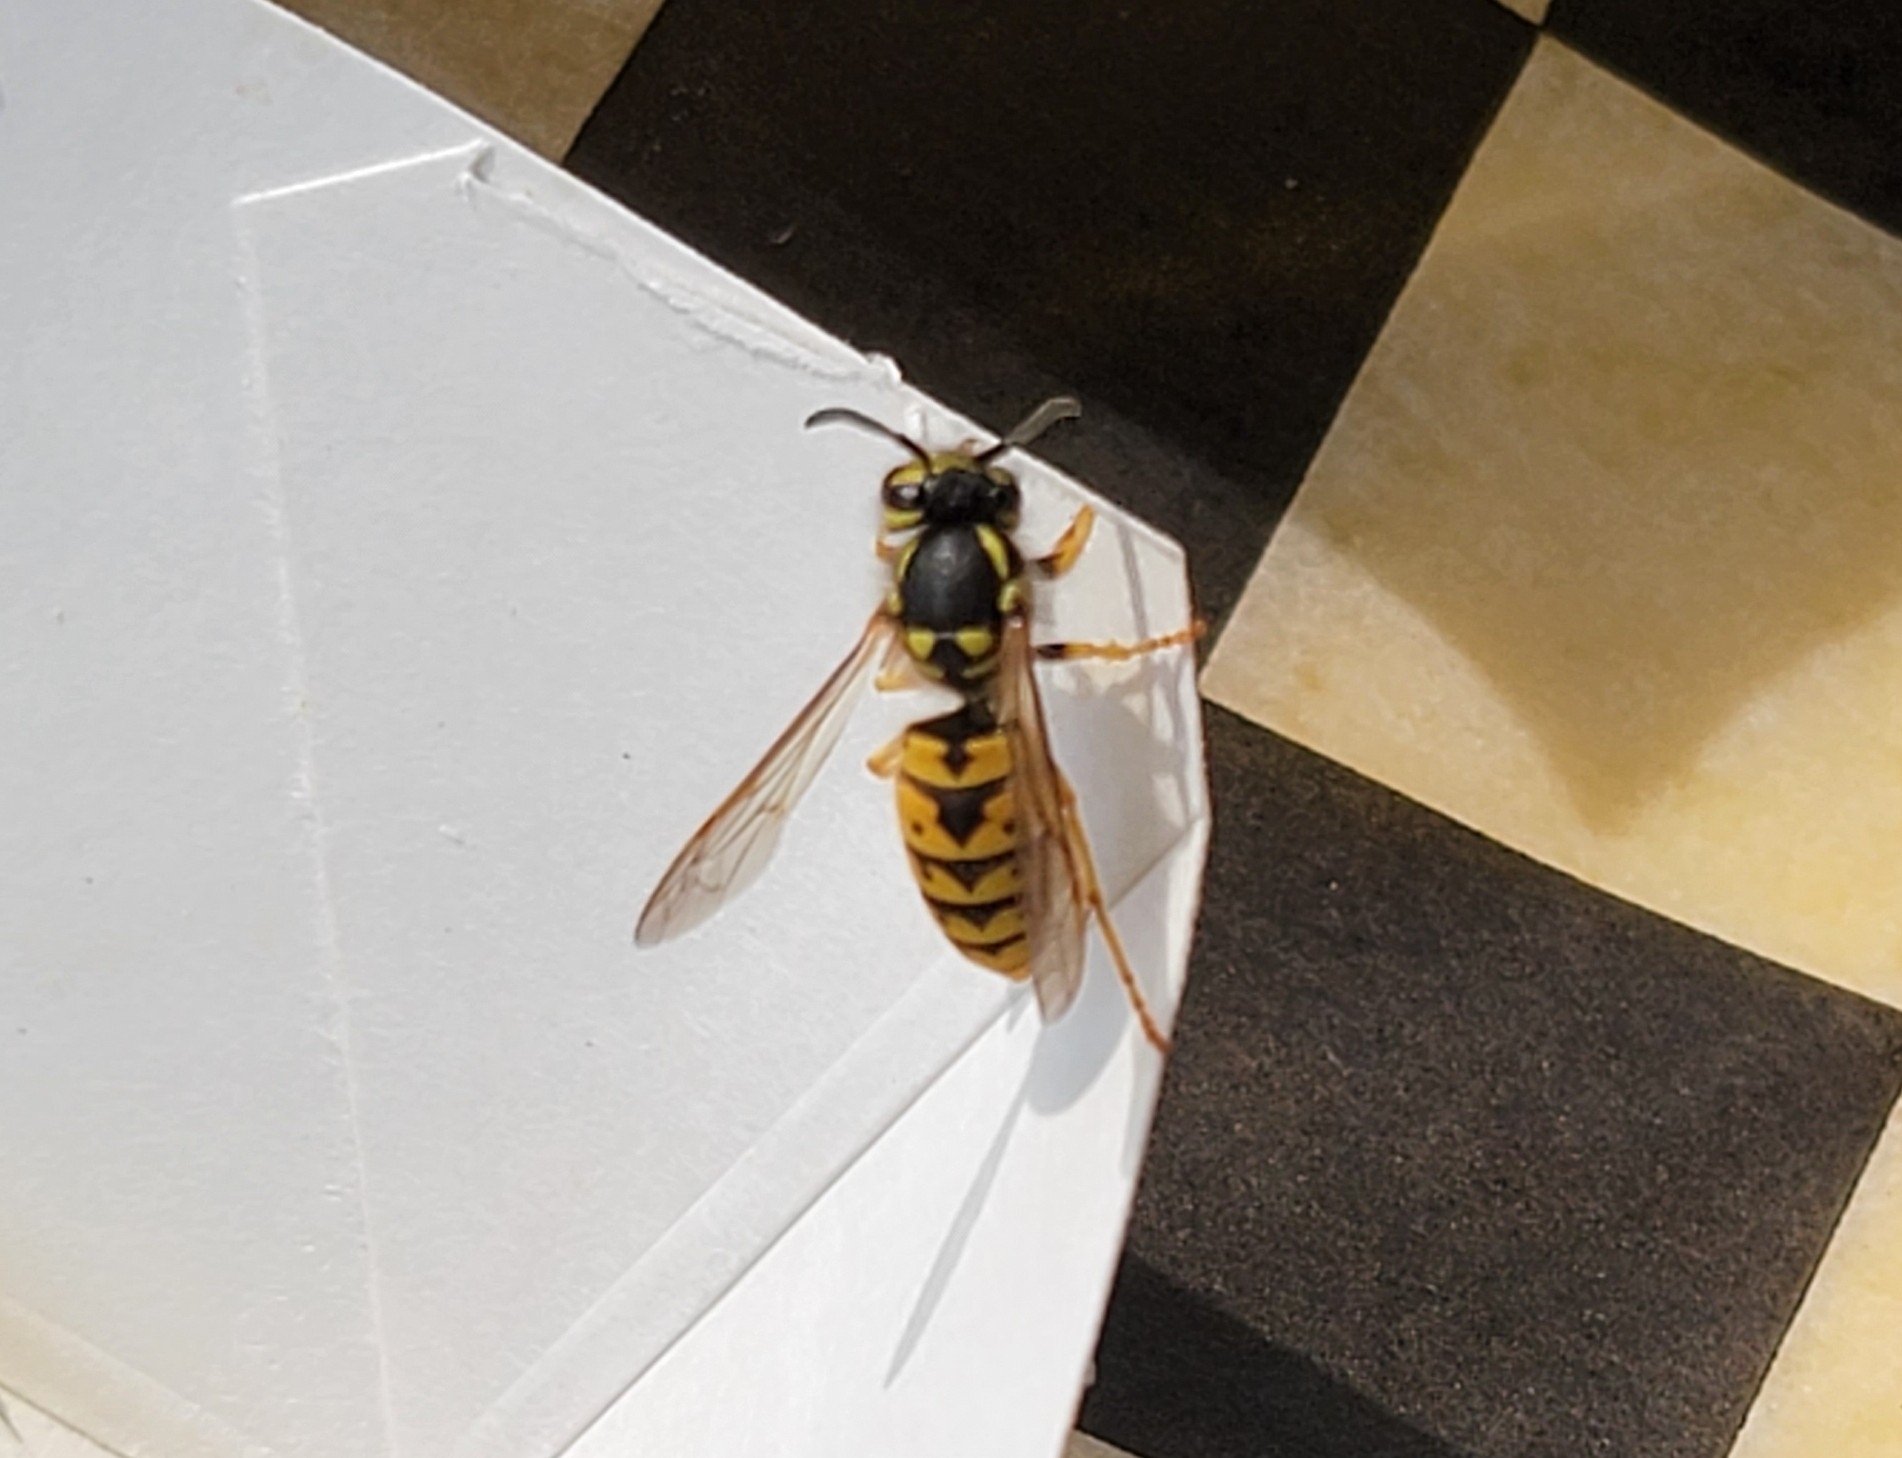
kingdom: Animalia
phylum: Arthropoda
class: Insecta
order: Hymenoptera
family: Vespidae
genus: Vespula
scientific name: Vespula germanica
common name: German wasp
